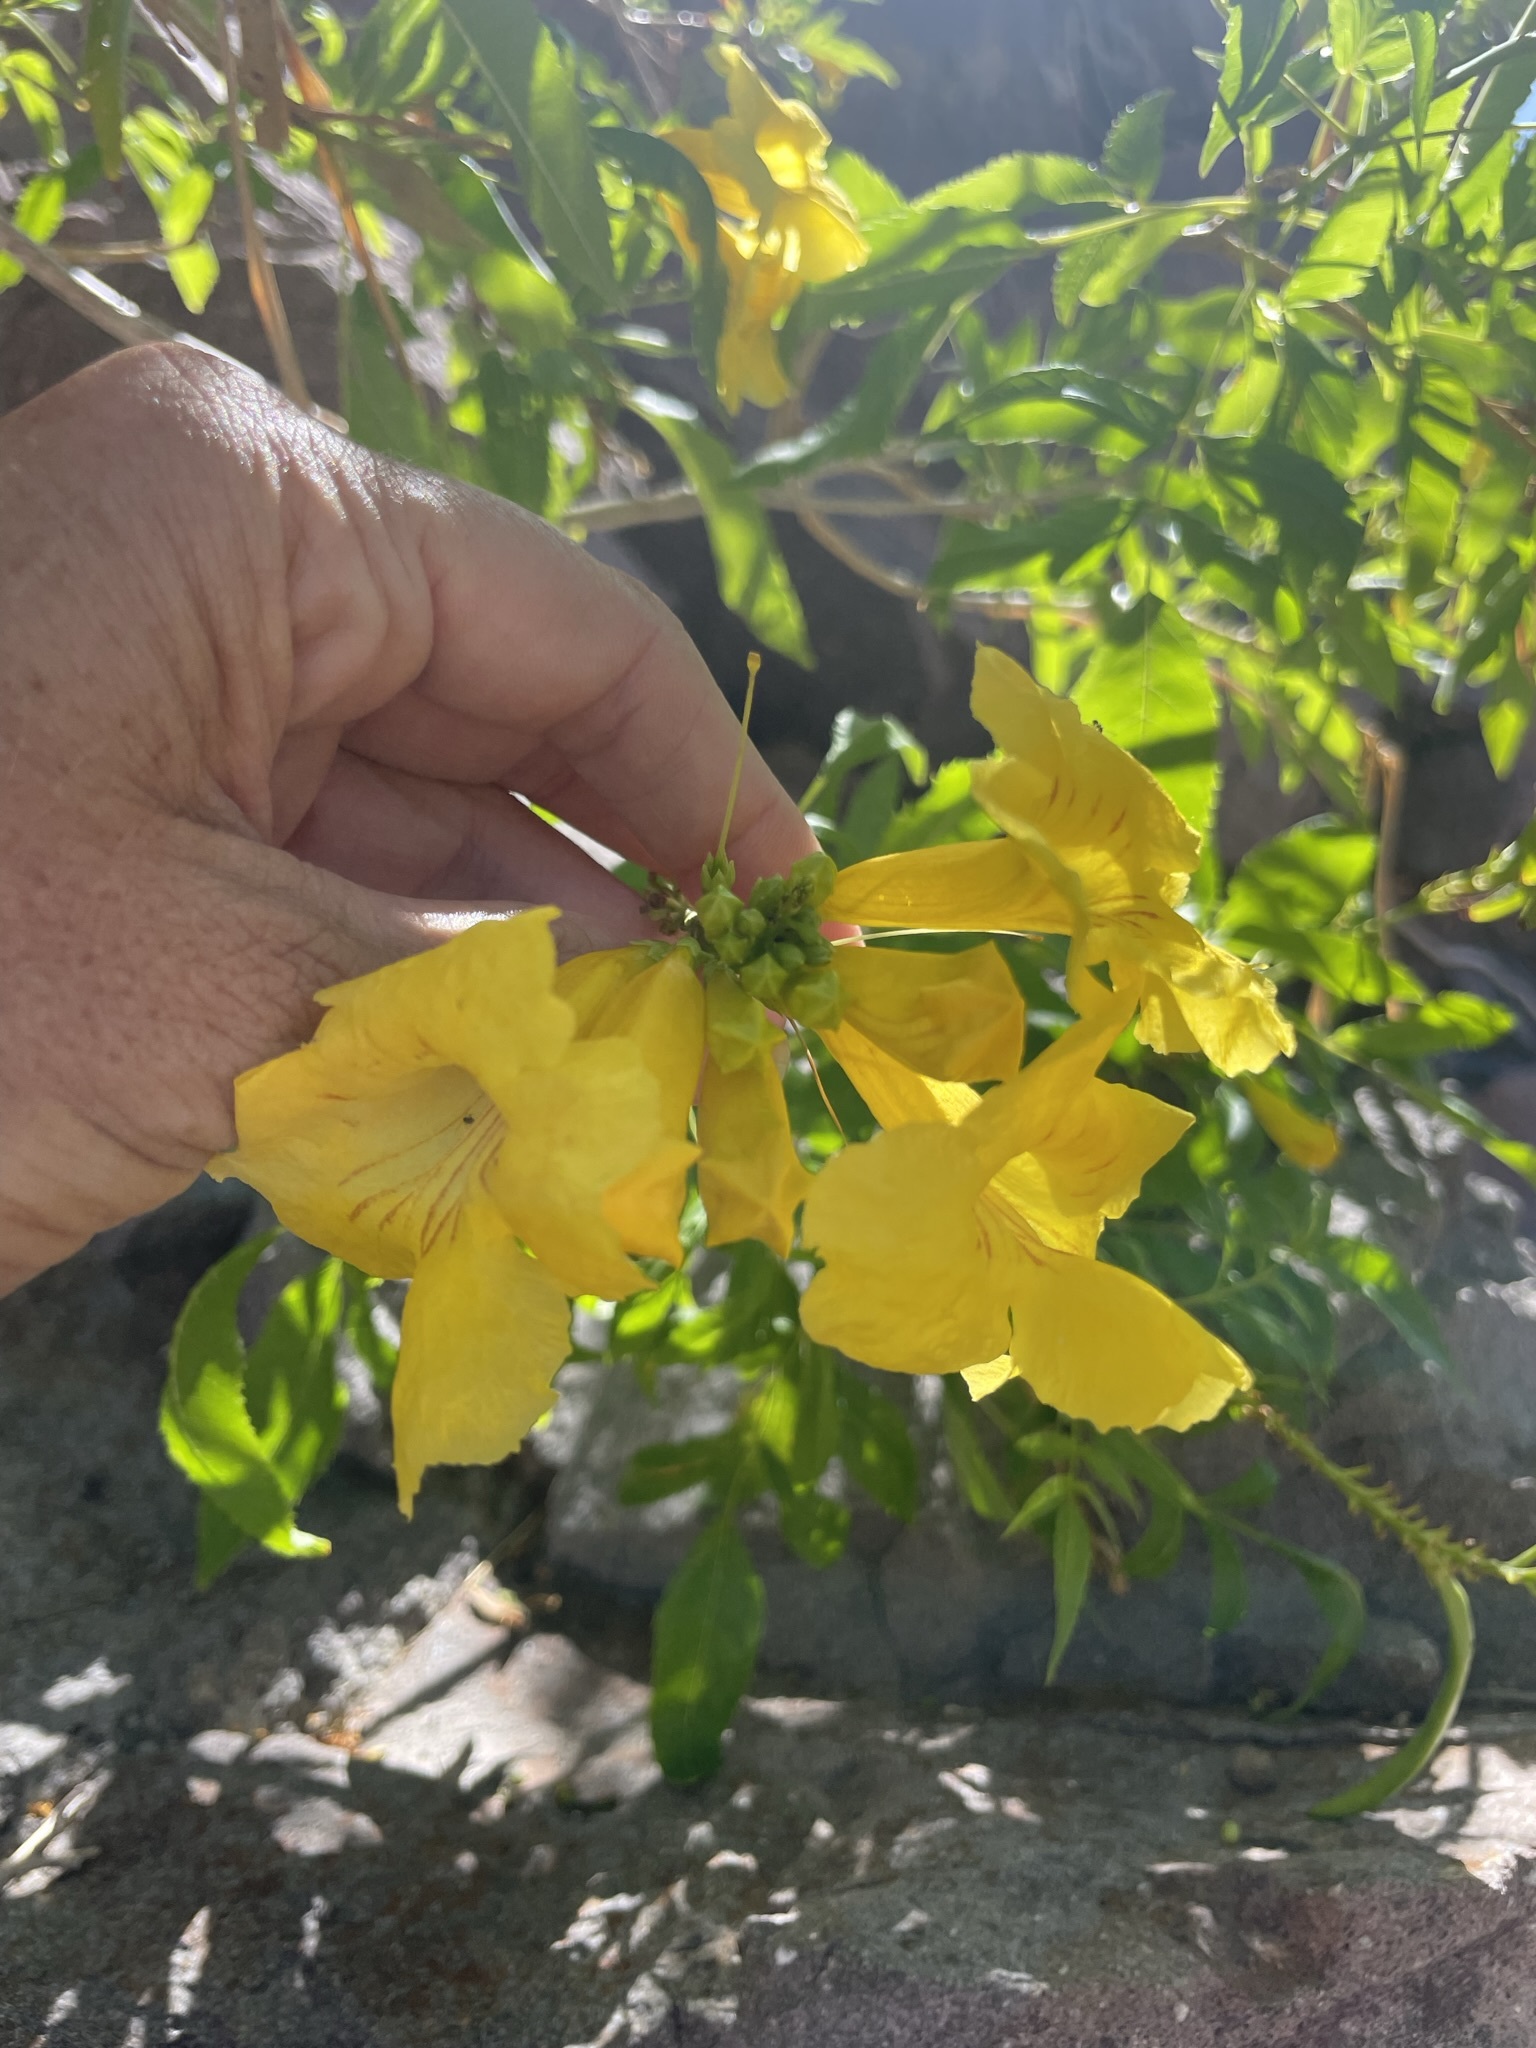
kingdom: Plantae
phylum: Tracheophyta
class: Magnoliopsida
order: Lamiales
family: Bignoniaceae
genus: Tecoma
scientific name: Tecoma stans
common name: Yellow trumpetbush
